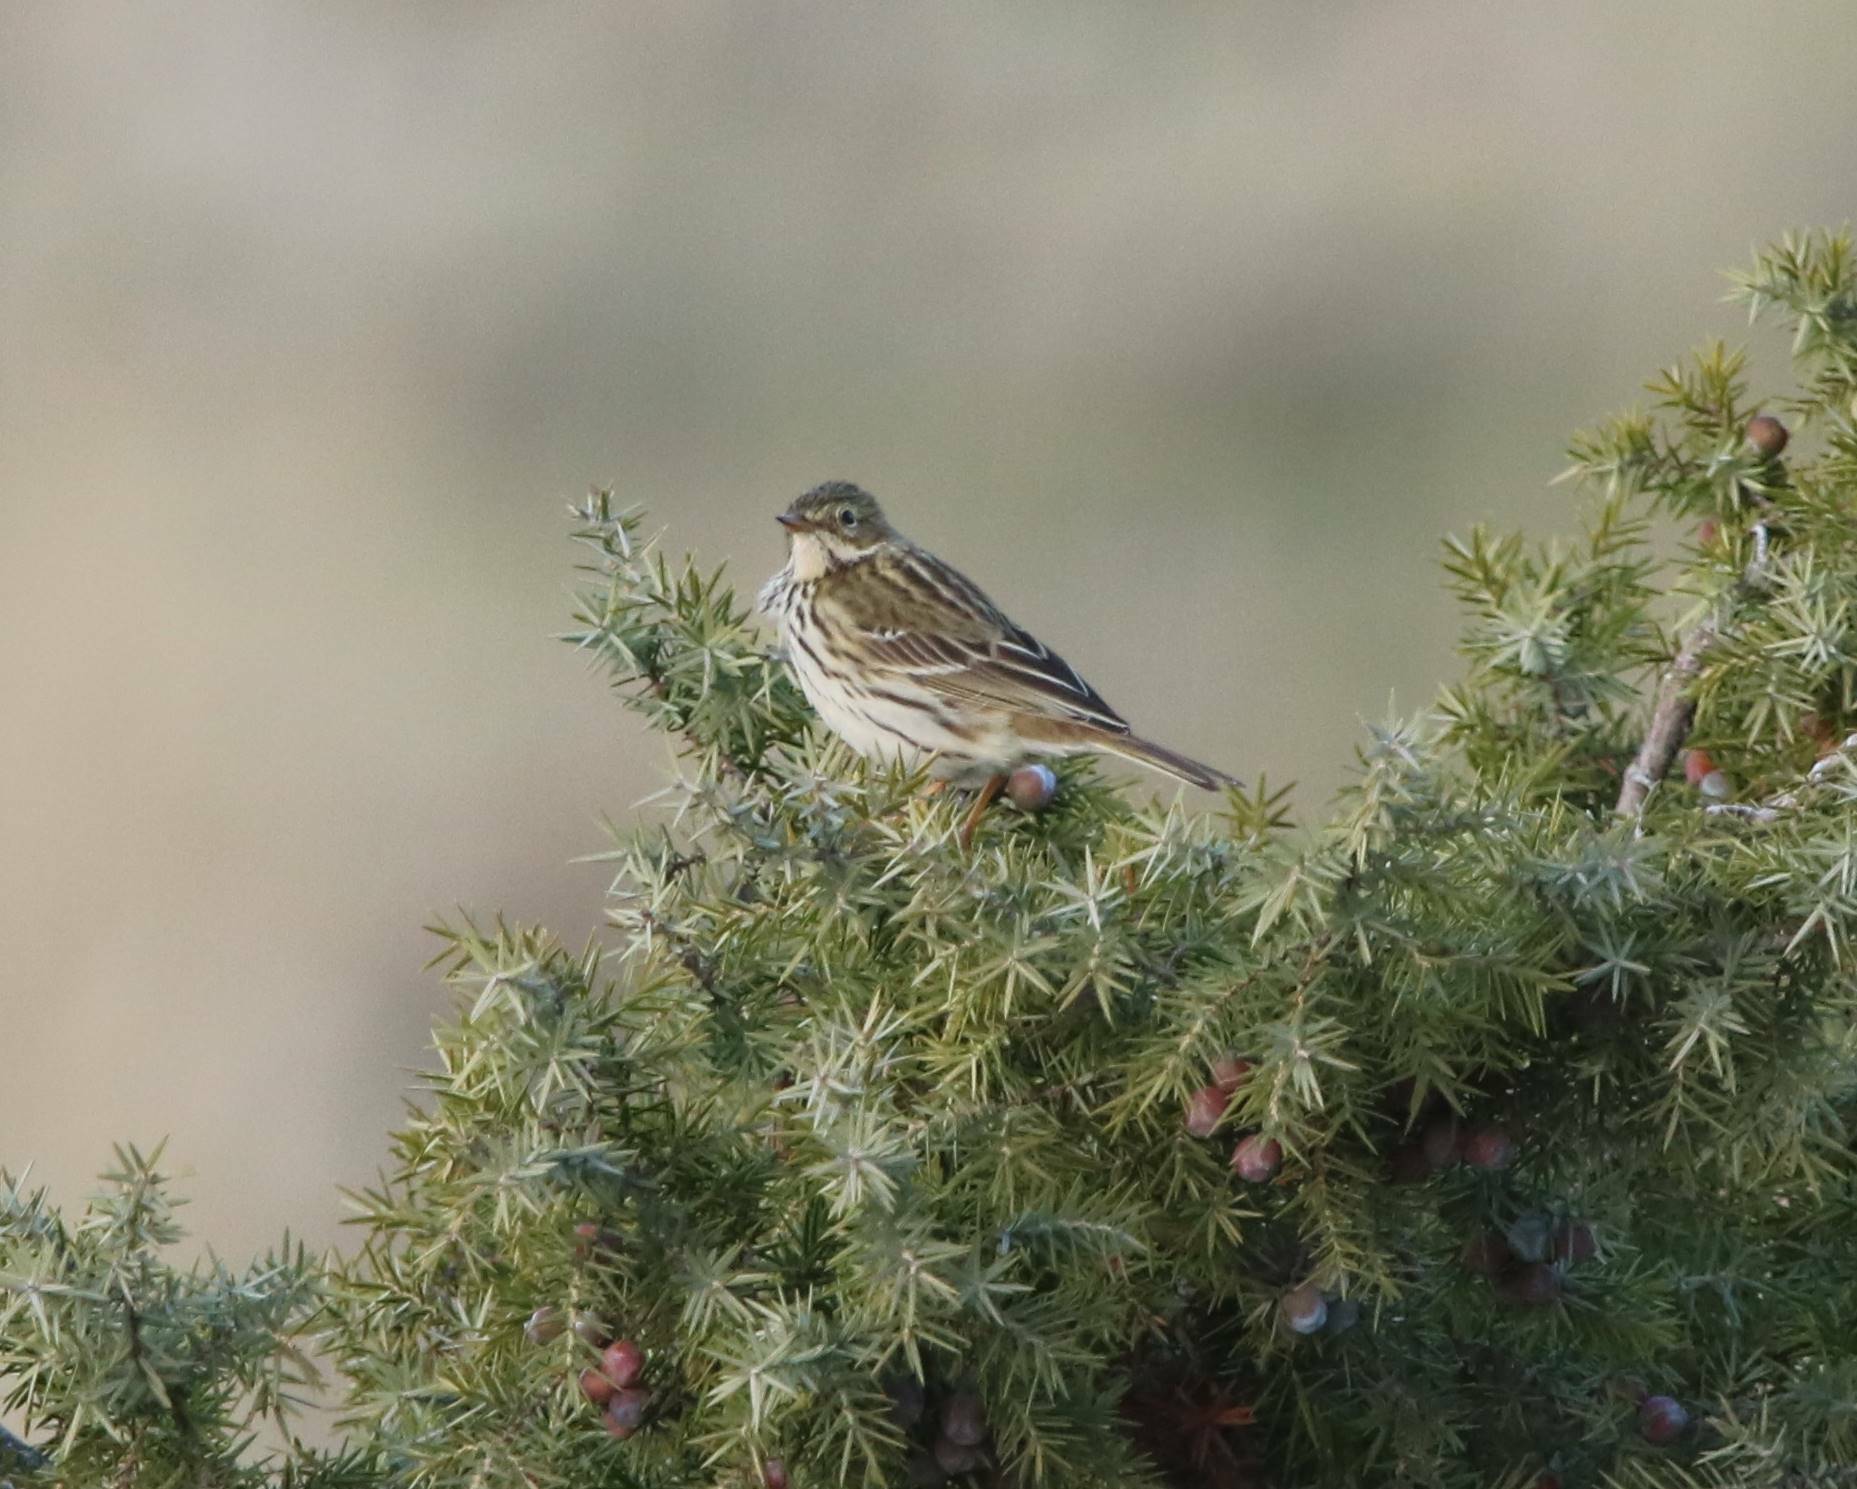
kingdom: Animalia
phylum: Chordata
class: Aves
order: Passeriformes
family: Motacillidae
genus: Anthus
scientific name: Anthus pratensis
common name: Meadow pipit
